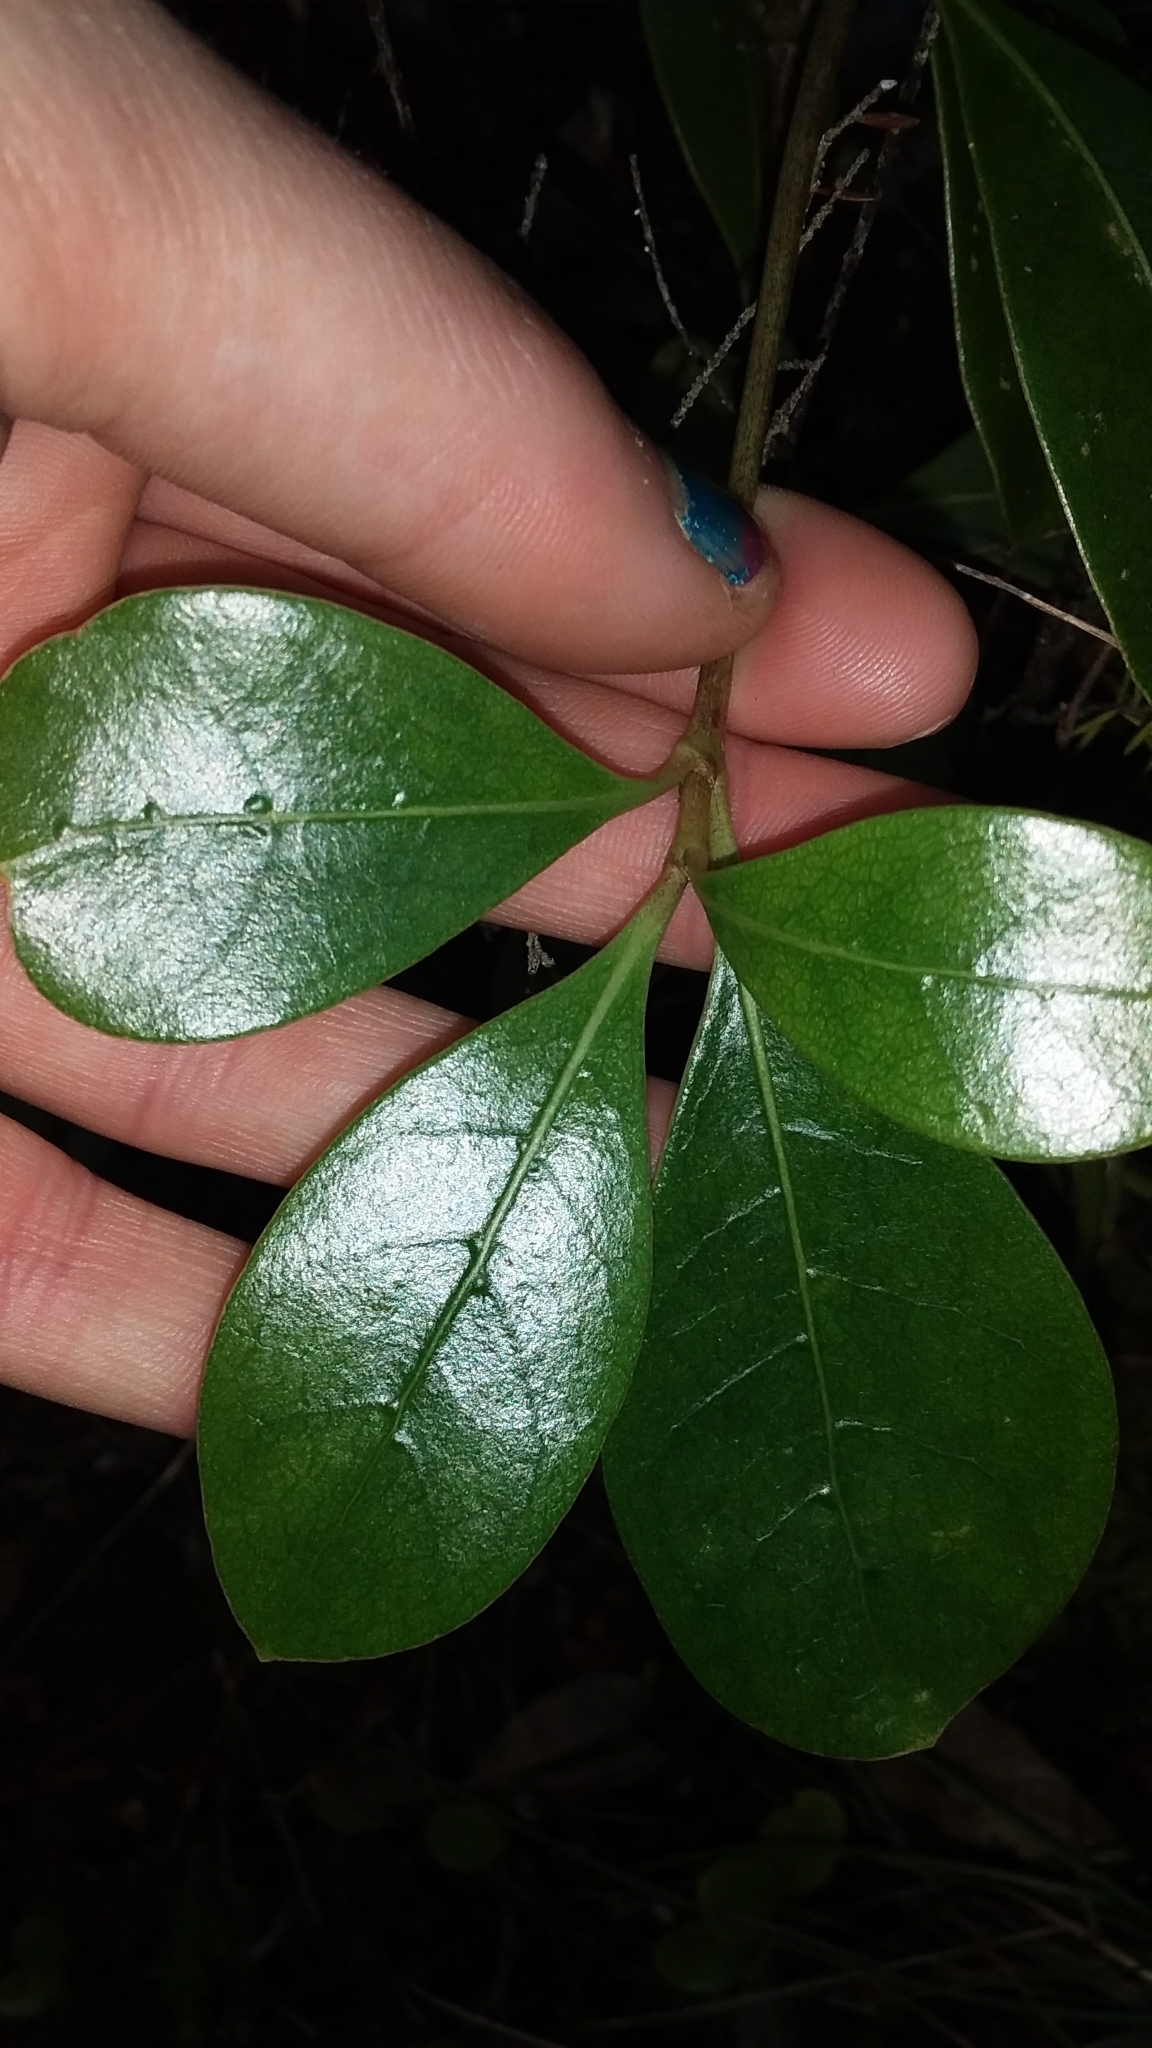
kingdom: Plantae
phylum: Tracheophyta
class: Magnoliopsida
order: Gentianales
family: Rubiaceae
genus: Coprosma
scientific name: Coprosma lucida
